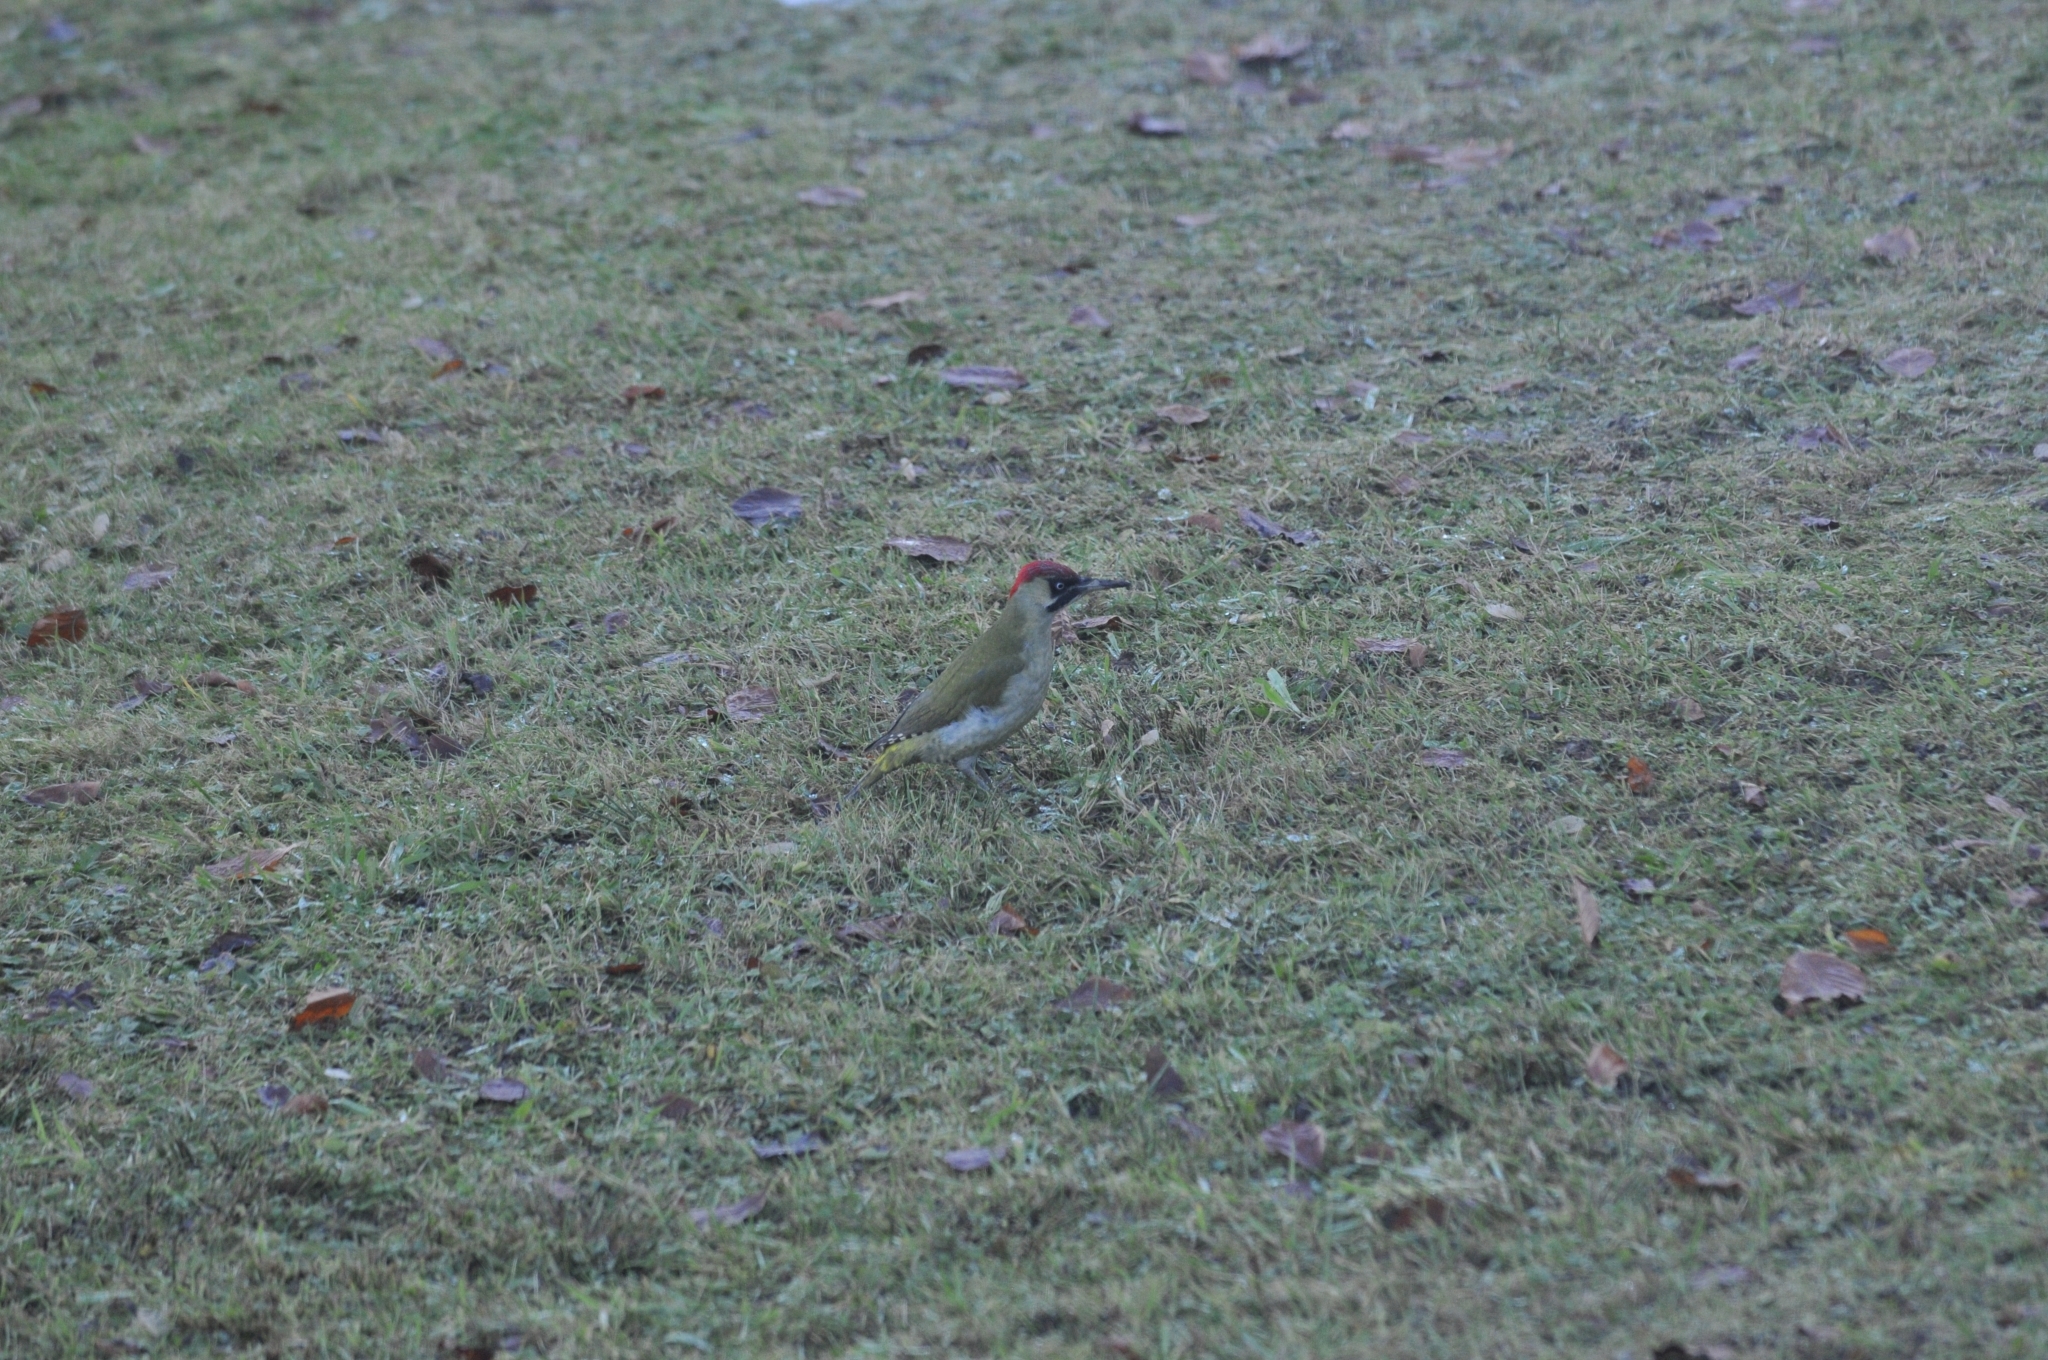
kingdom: Animalia
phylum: Chordata
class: Aves
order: Piciformes
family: Picidae
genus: Picus
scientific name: Picus viridis
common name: European green woodpecker
